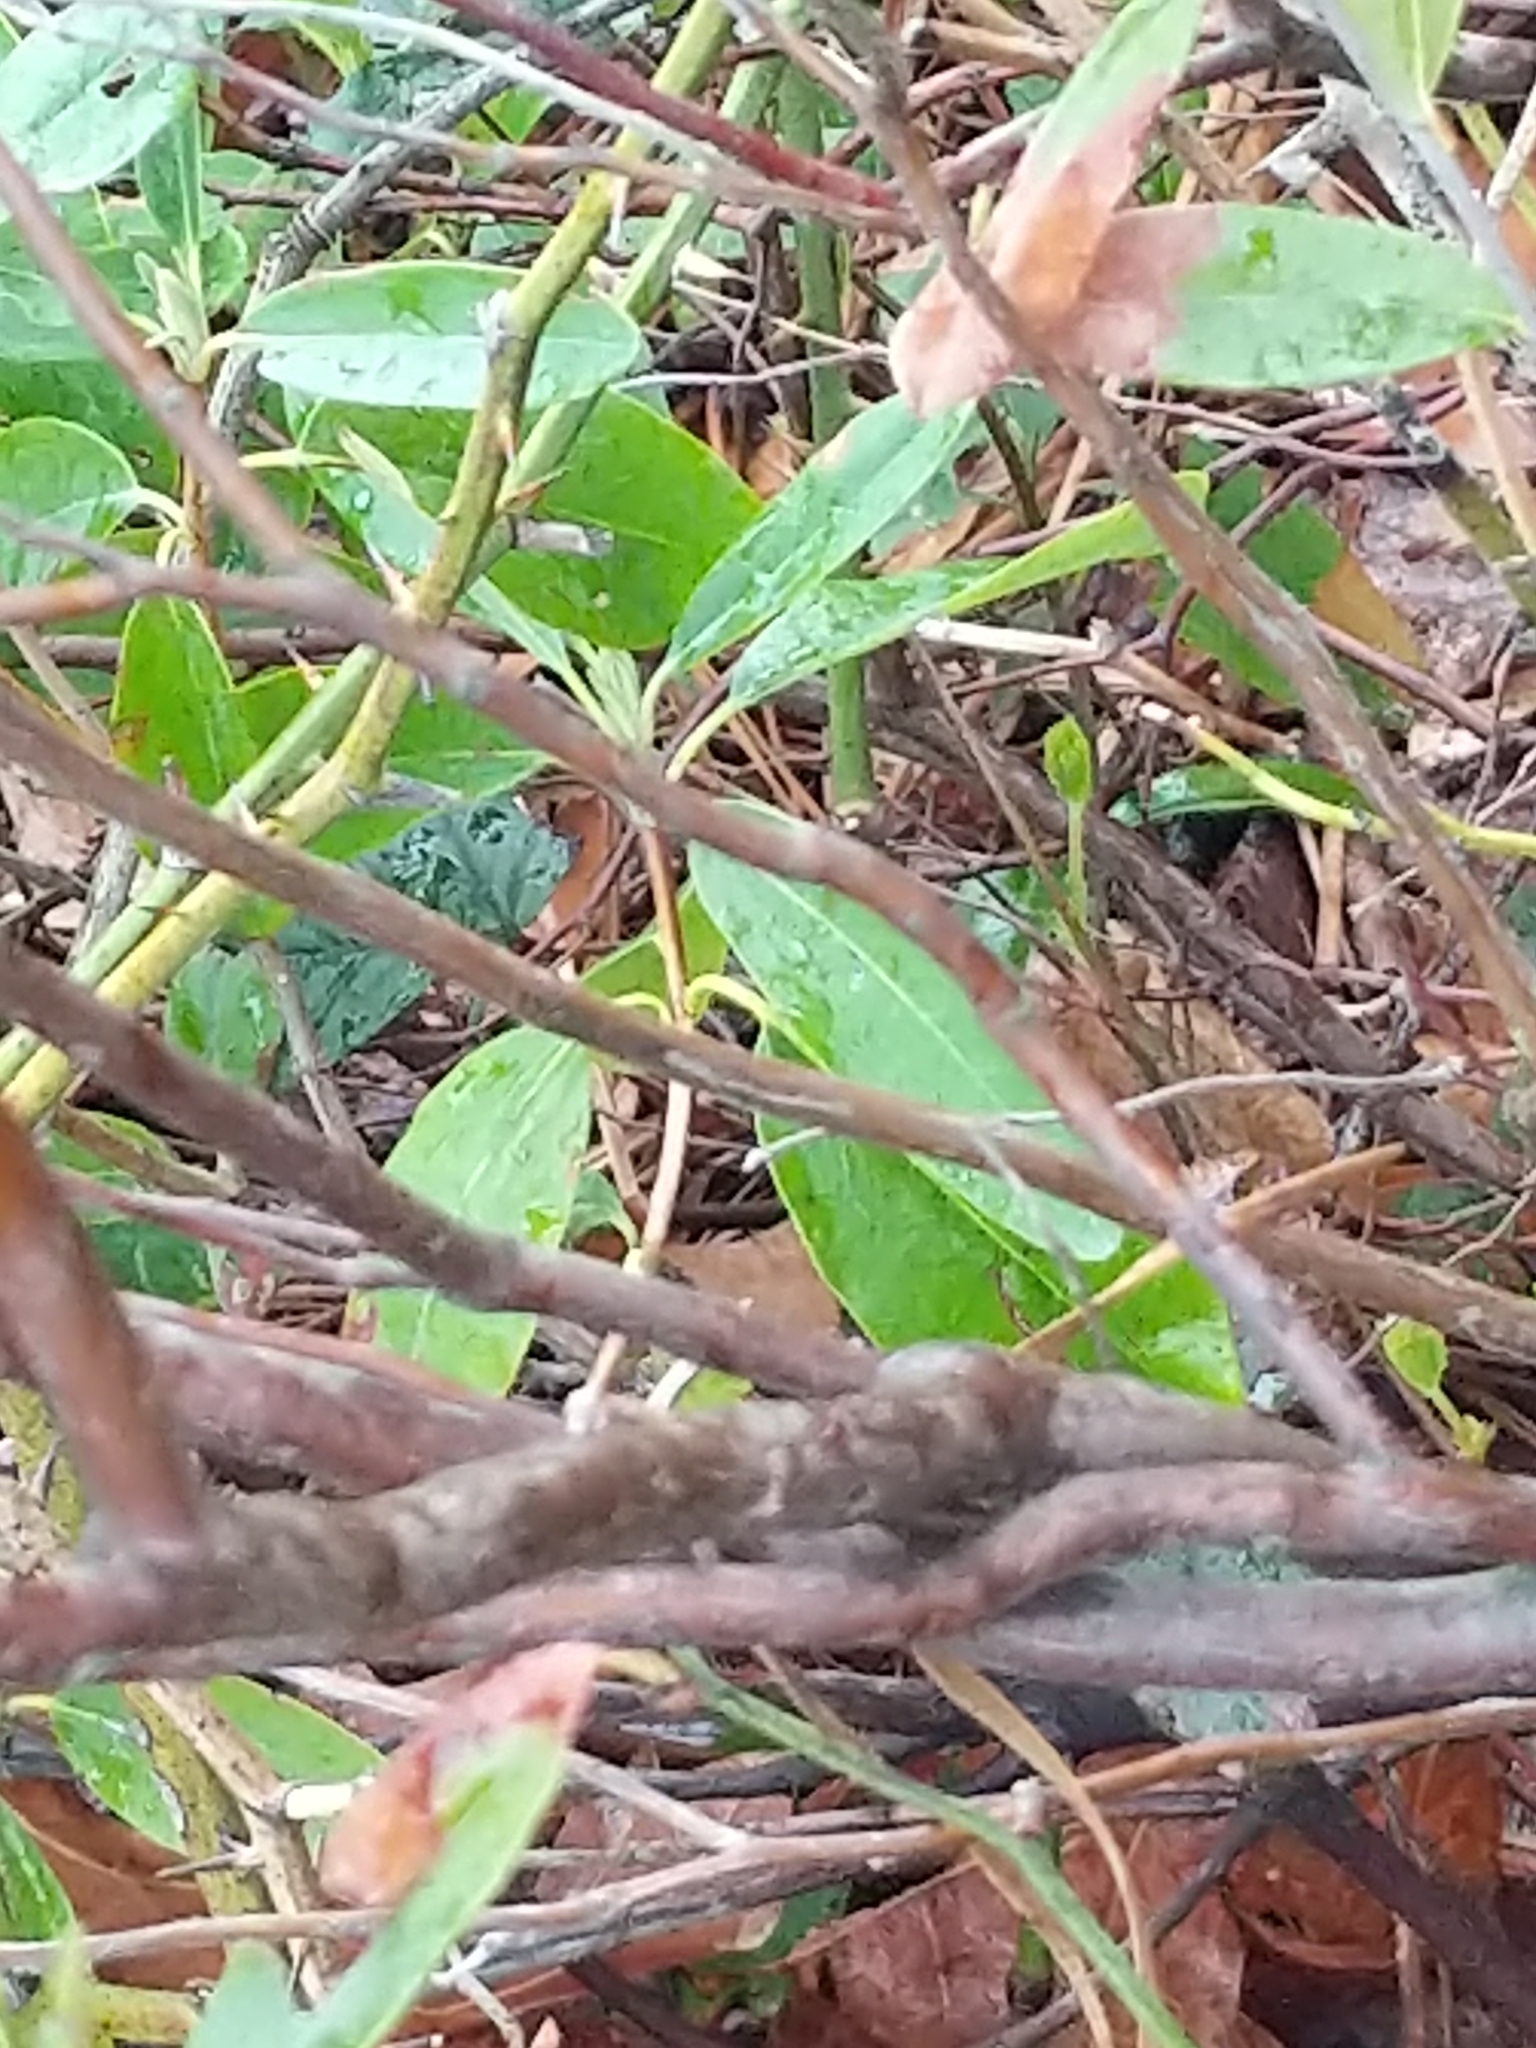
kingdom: Plantae
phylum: Tracheophyta
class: Magnoliopsida
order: Ericales
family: Ericaceae
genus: Chamaedaphne
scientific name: Chamaedaphne calyculata
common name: Leatherleaf
